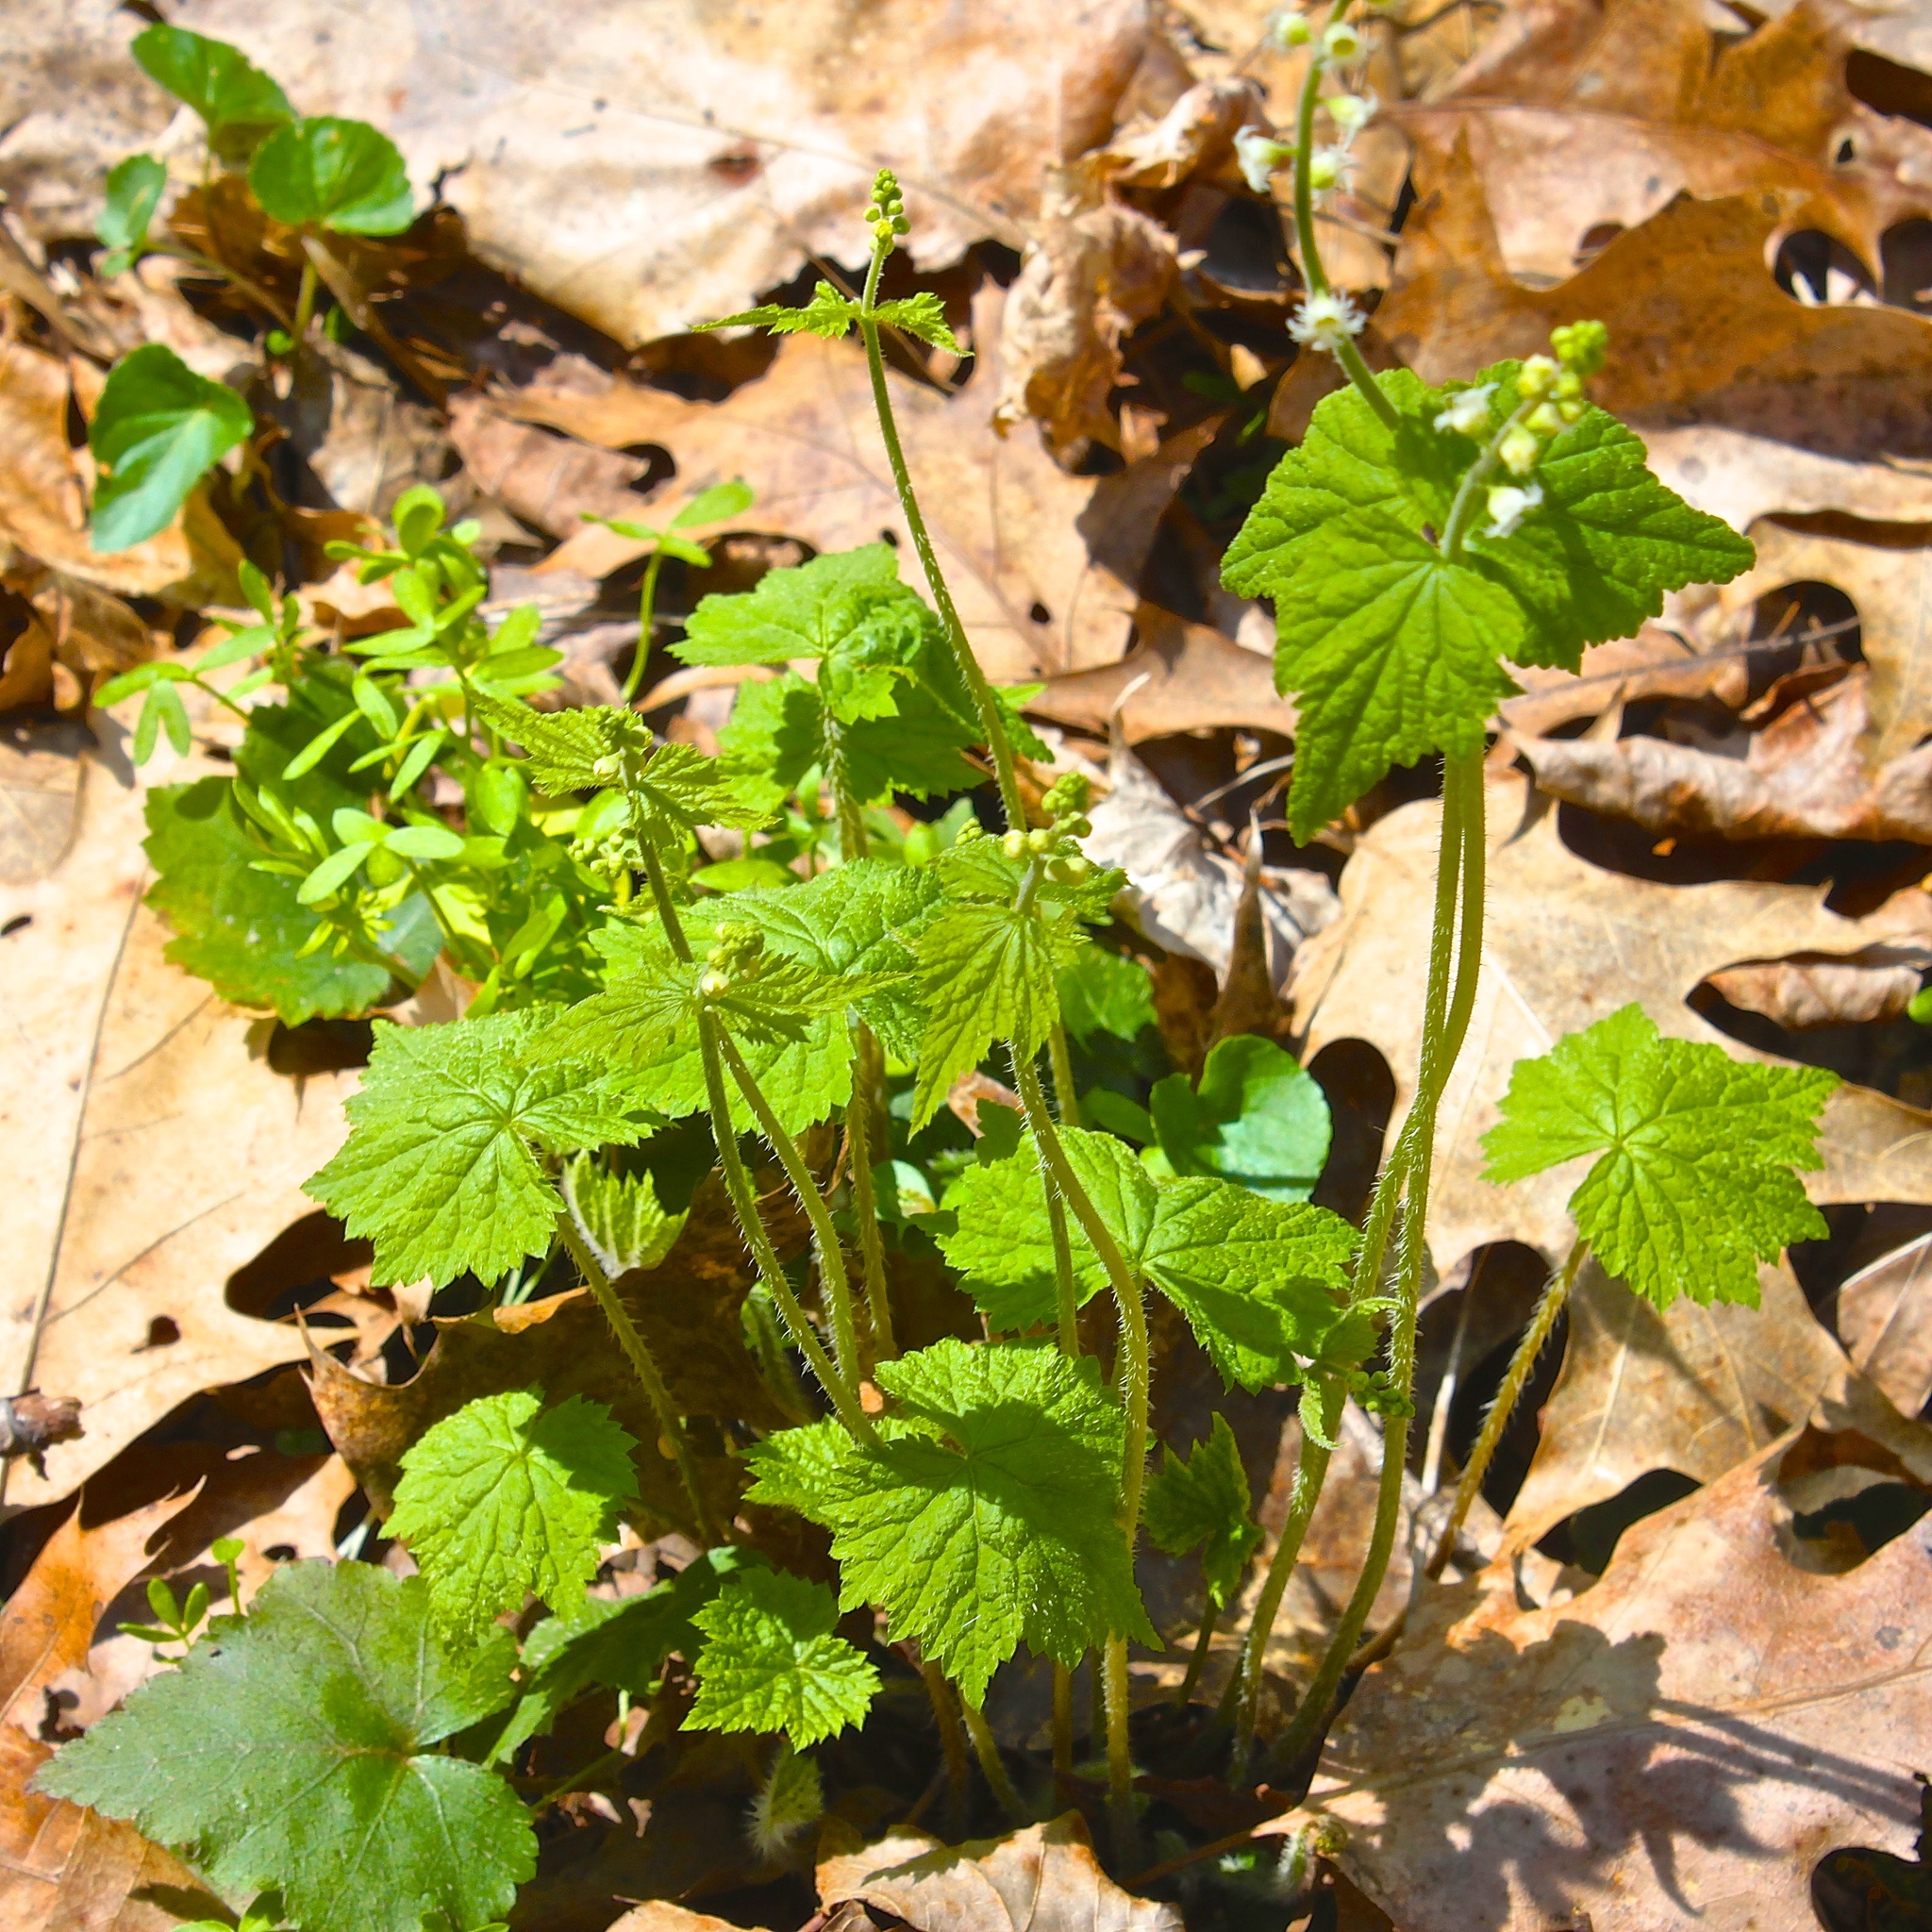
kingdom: Plantae
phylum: Tracheophyta
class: Magnoliopsida
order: Saxifragales
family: Saxifragaceae
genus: Mitella
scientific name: Mitella diphylla
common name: Coolwort
